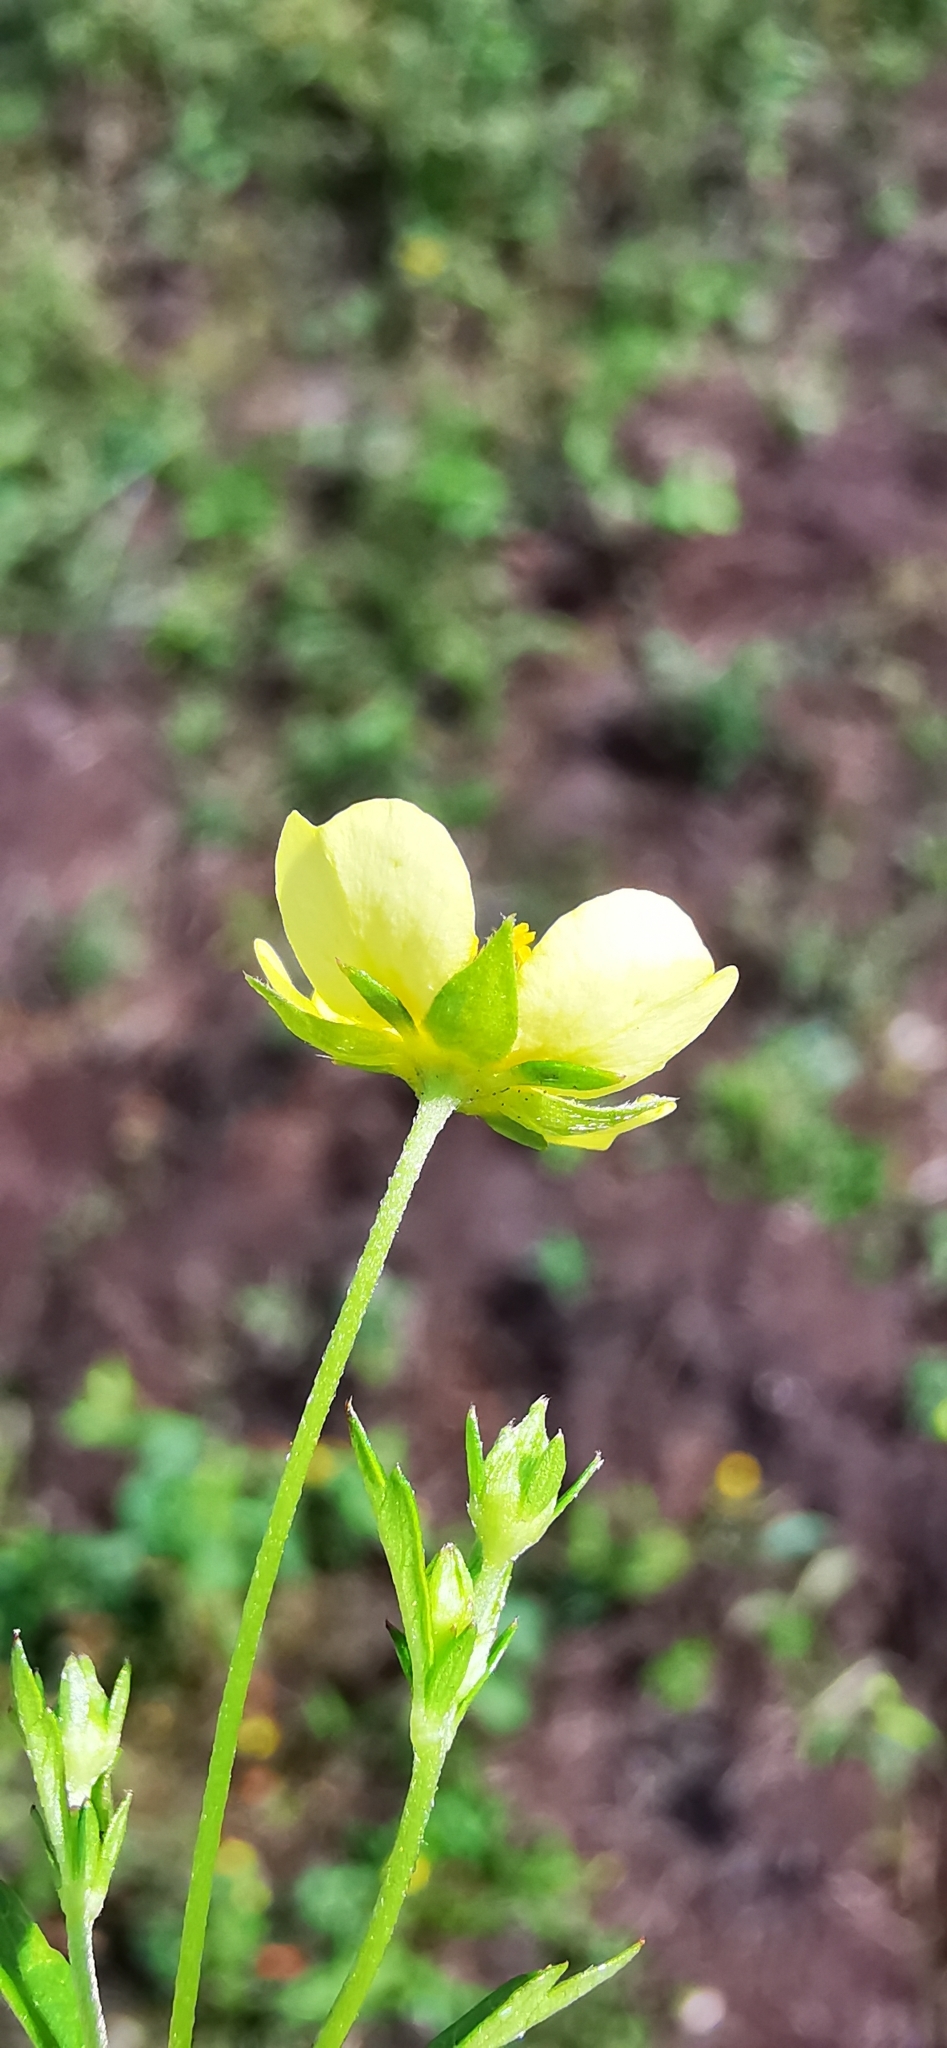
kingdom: Plantae
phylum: Tracheophyta
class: Magnoliopsida
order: Rosales
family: Rosaceae
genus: Potentilla
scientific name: Potentilla erecta
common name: Tormentil
